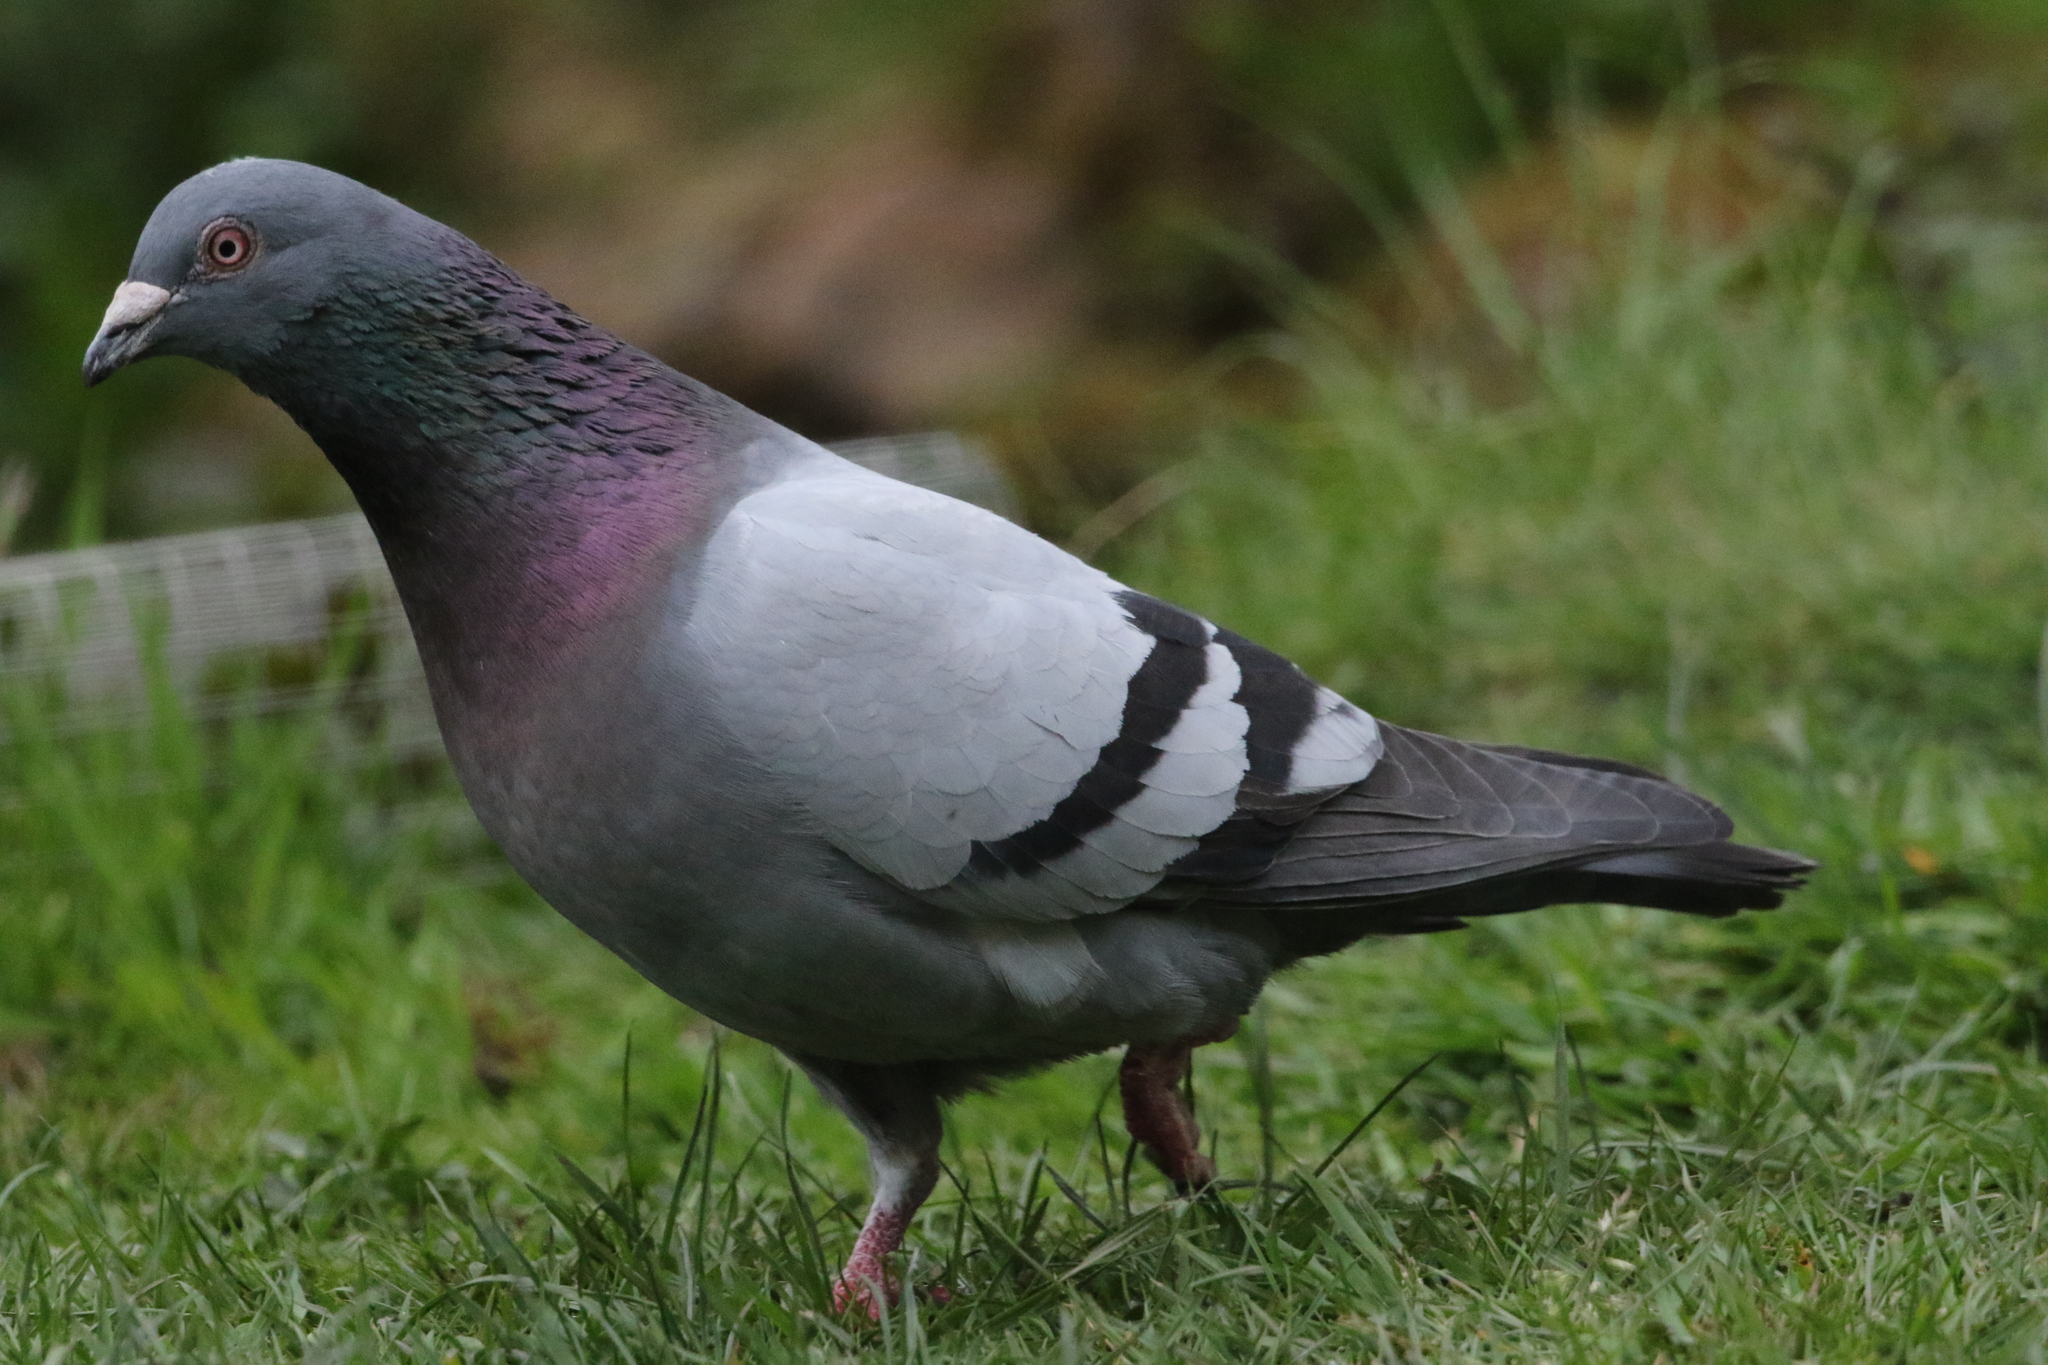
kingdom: Animalia
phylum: Chordata
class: Aves
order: Columbiformes
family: Columbidae
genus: Columba
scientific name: Columba livia
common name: Rock pigeon
